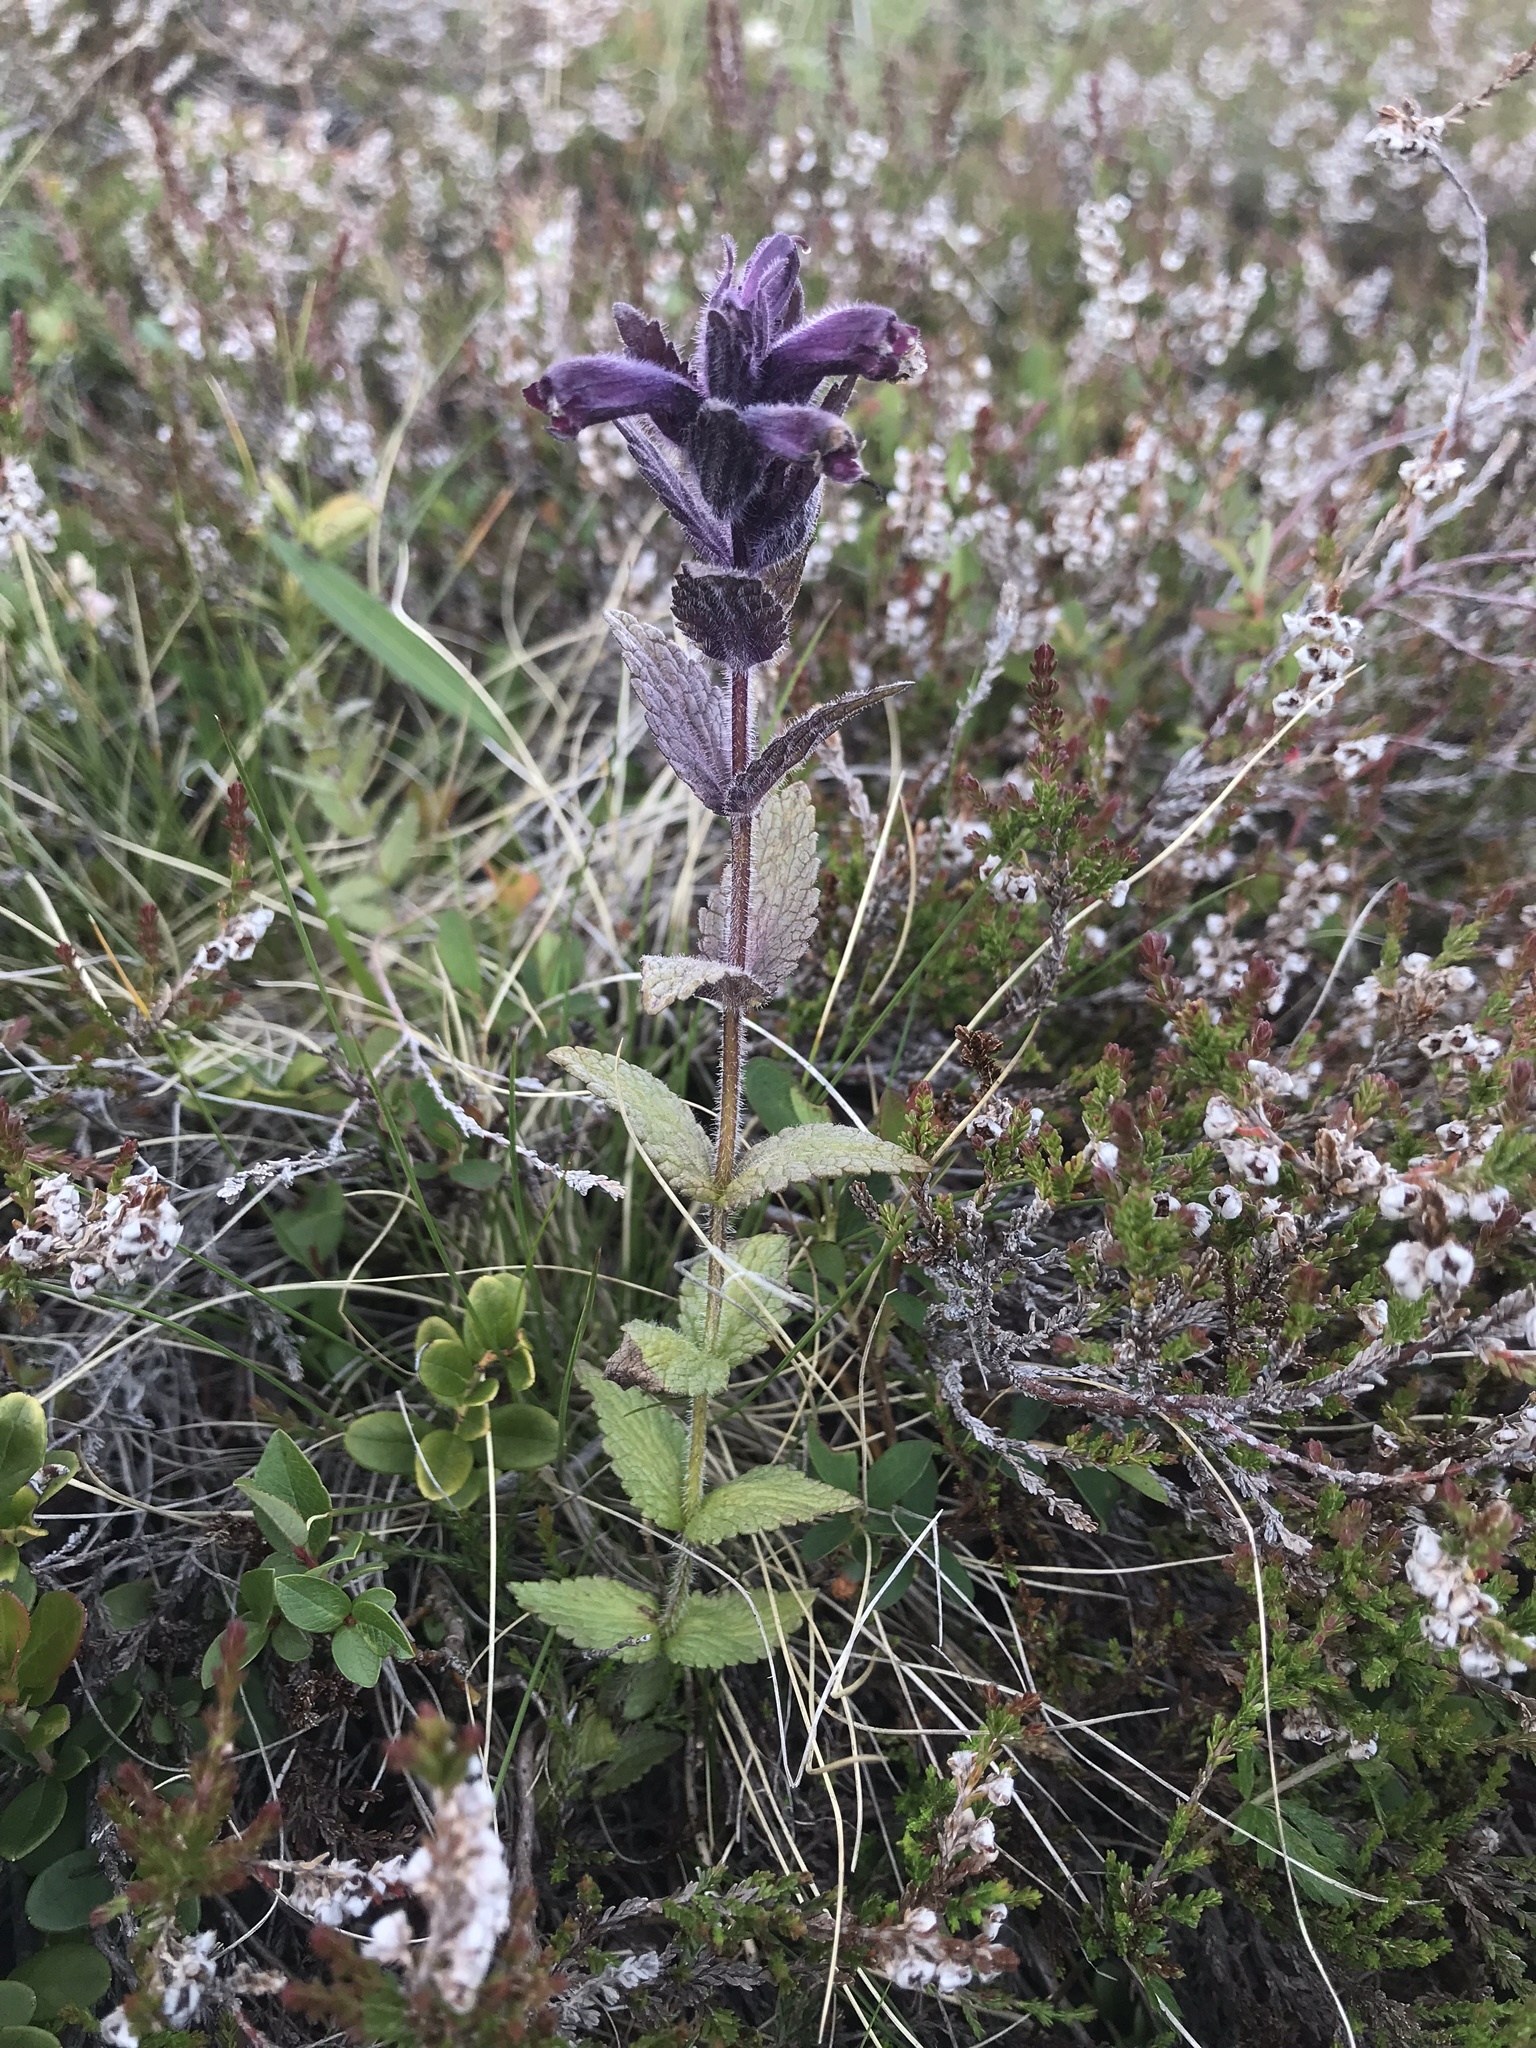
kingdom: Plantae
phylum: Tracheophyta
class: Magnoliopsida
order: Lamiales
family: Orobanchaceae
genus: Bartsia
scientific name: Bartsia alpina
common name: Alpine bartsia
